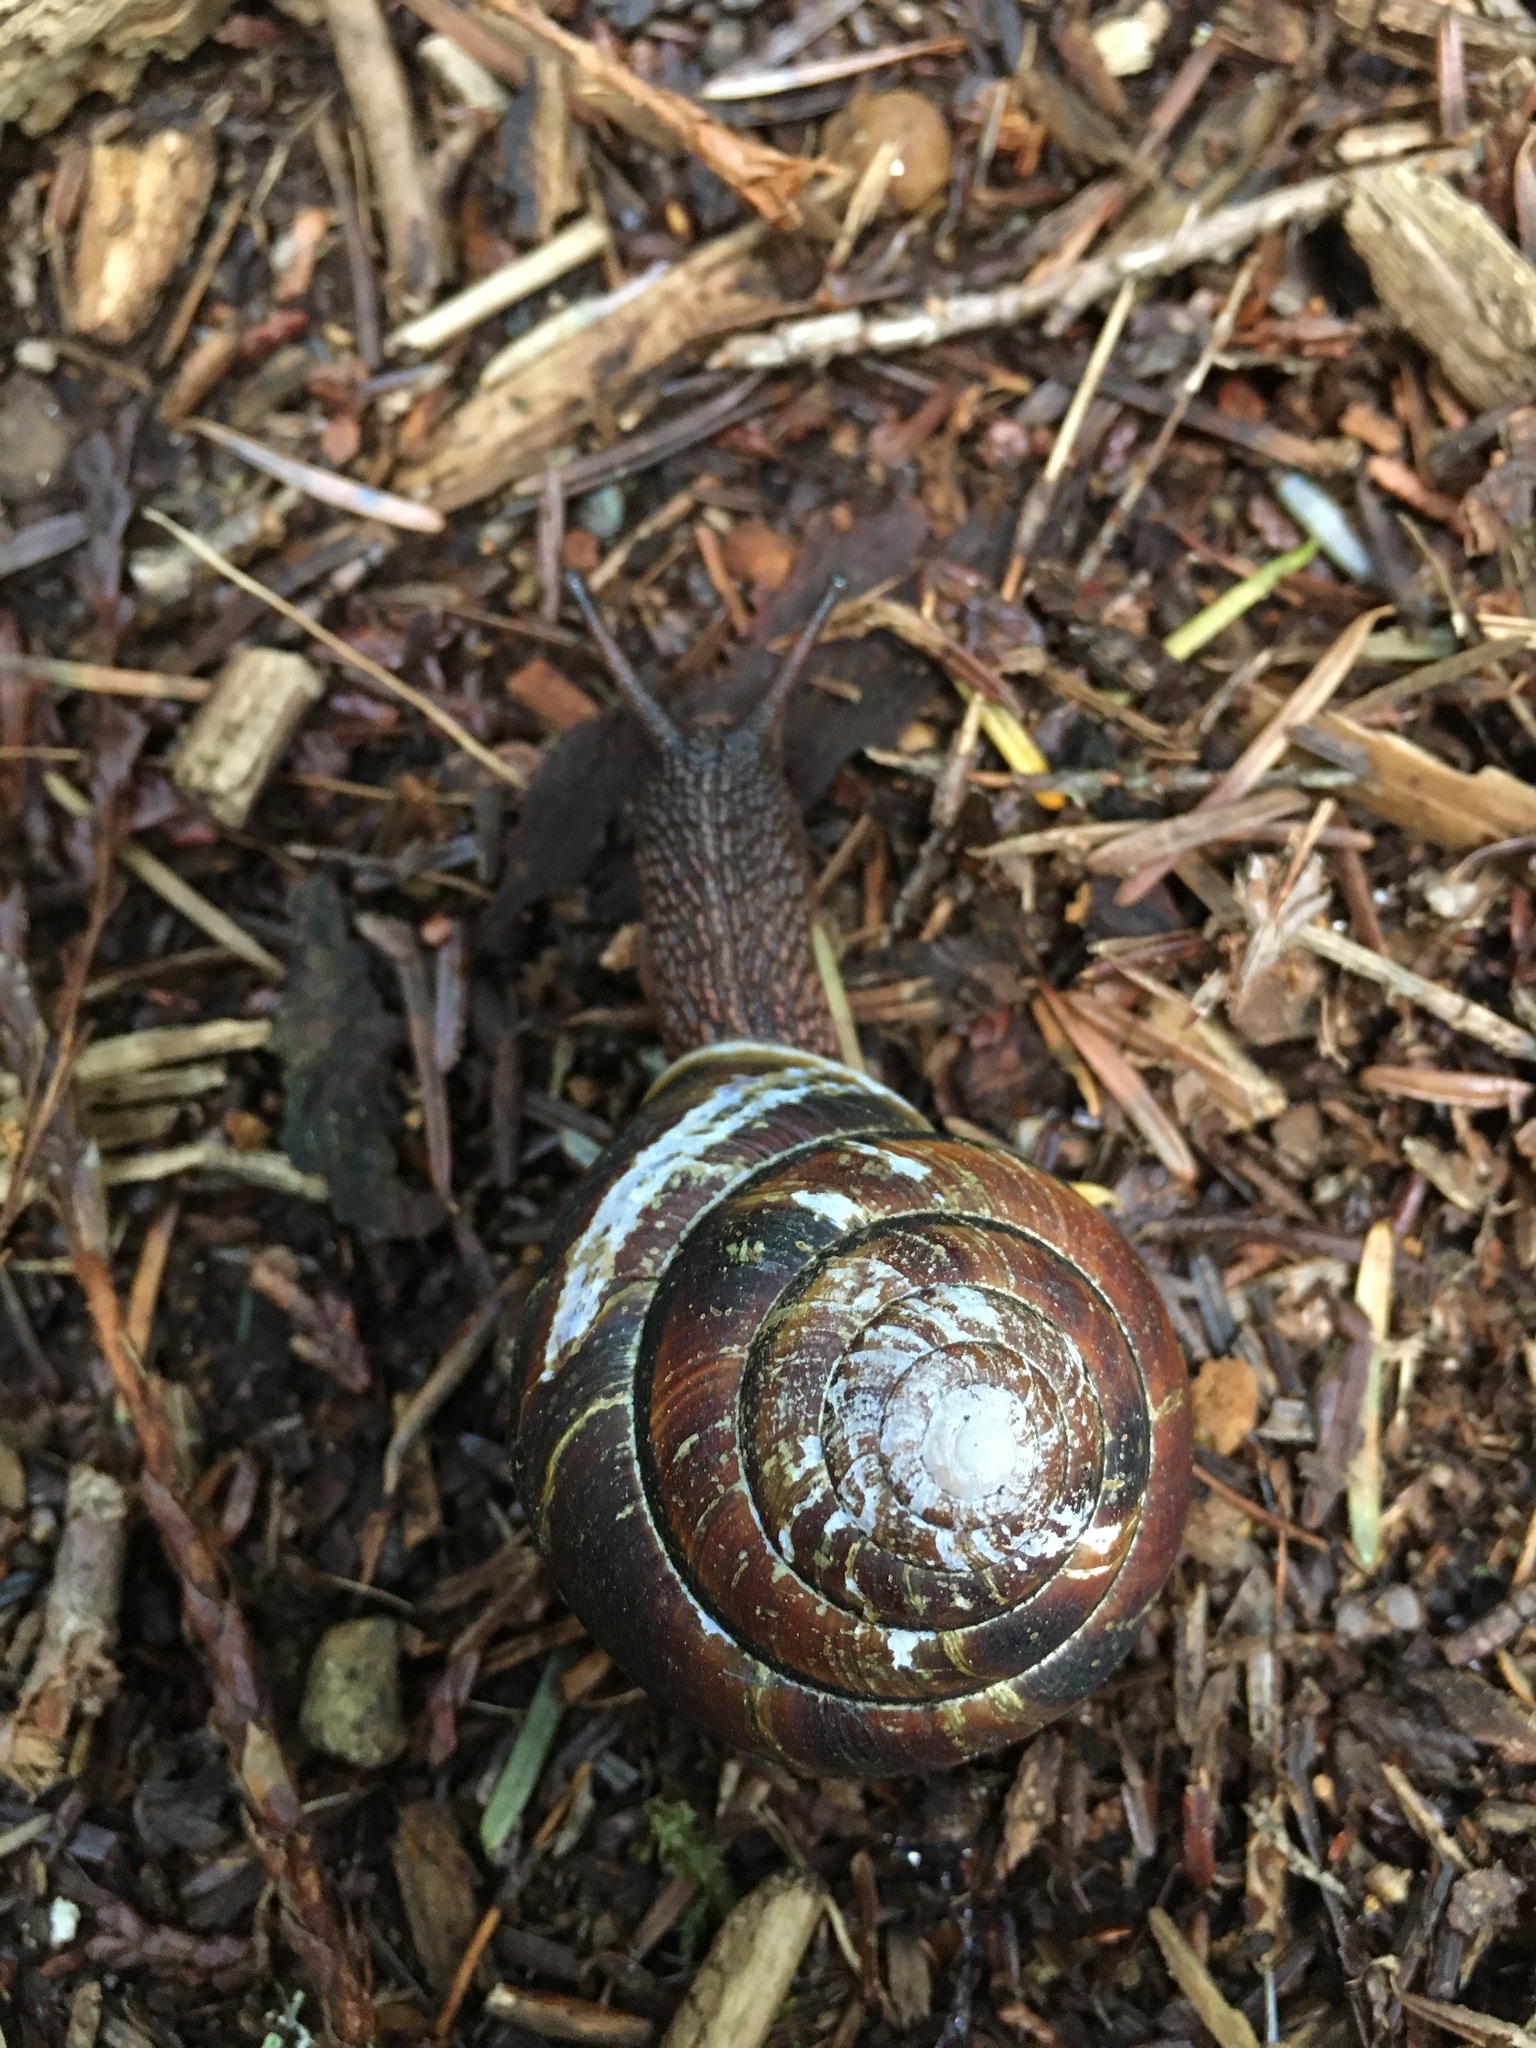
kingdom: Animalia
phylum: Mollusca
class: Gastropoda
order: Stylommatophora
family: Xanthonychidae
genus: Monadenia
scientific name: Monadenia fidelis
